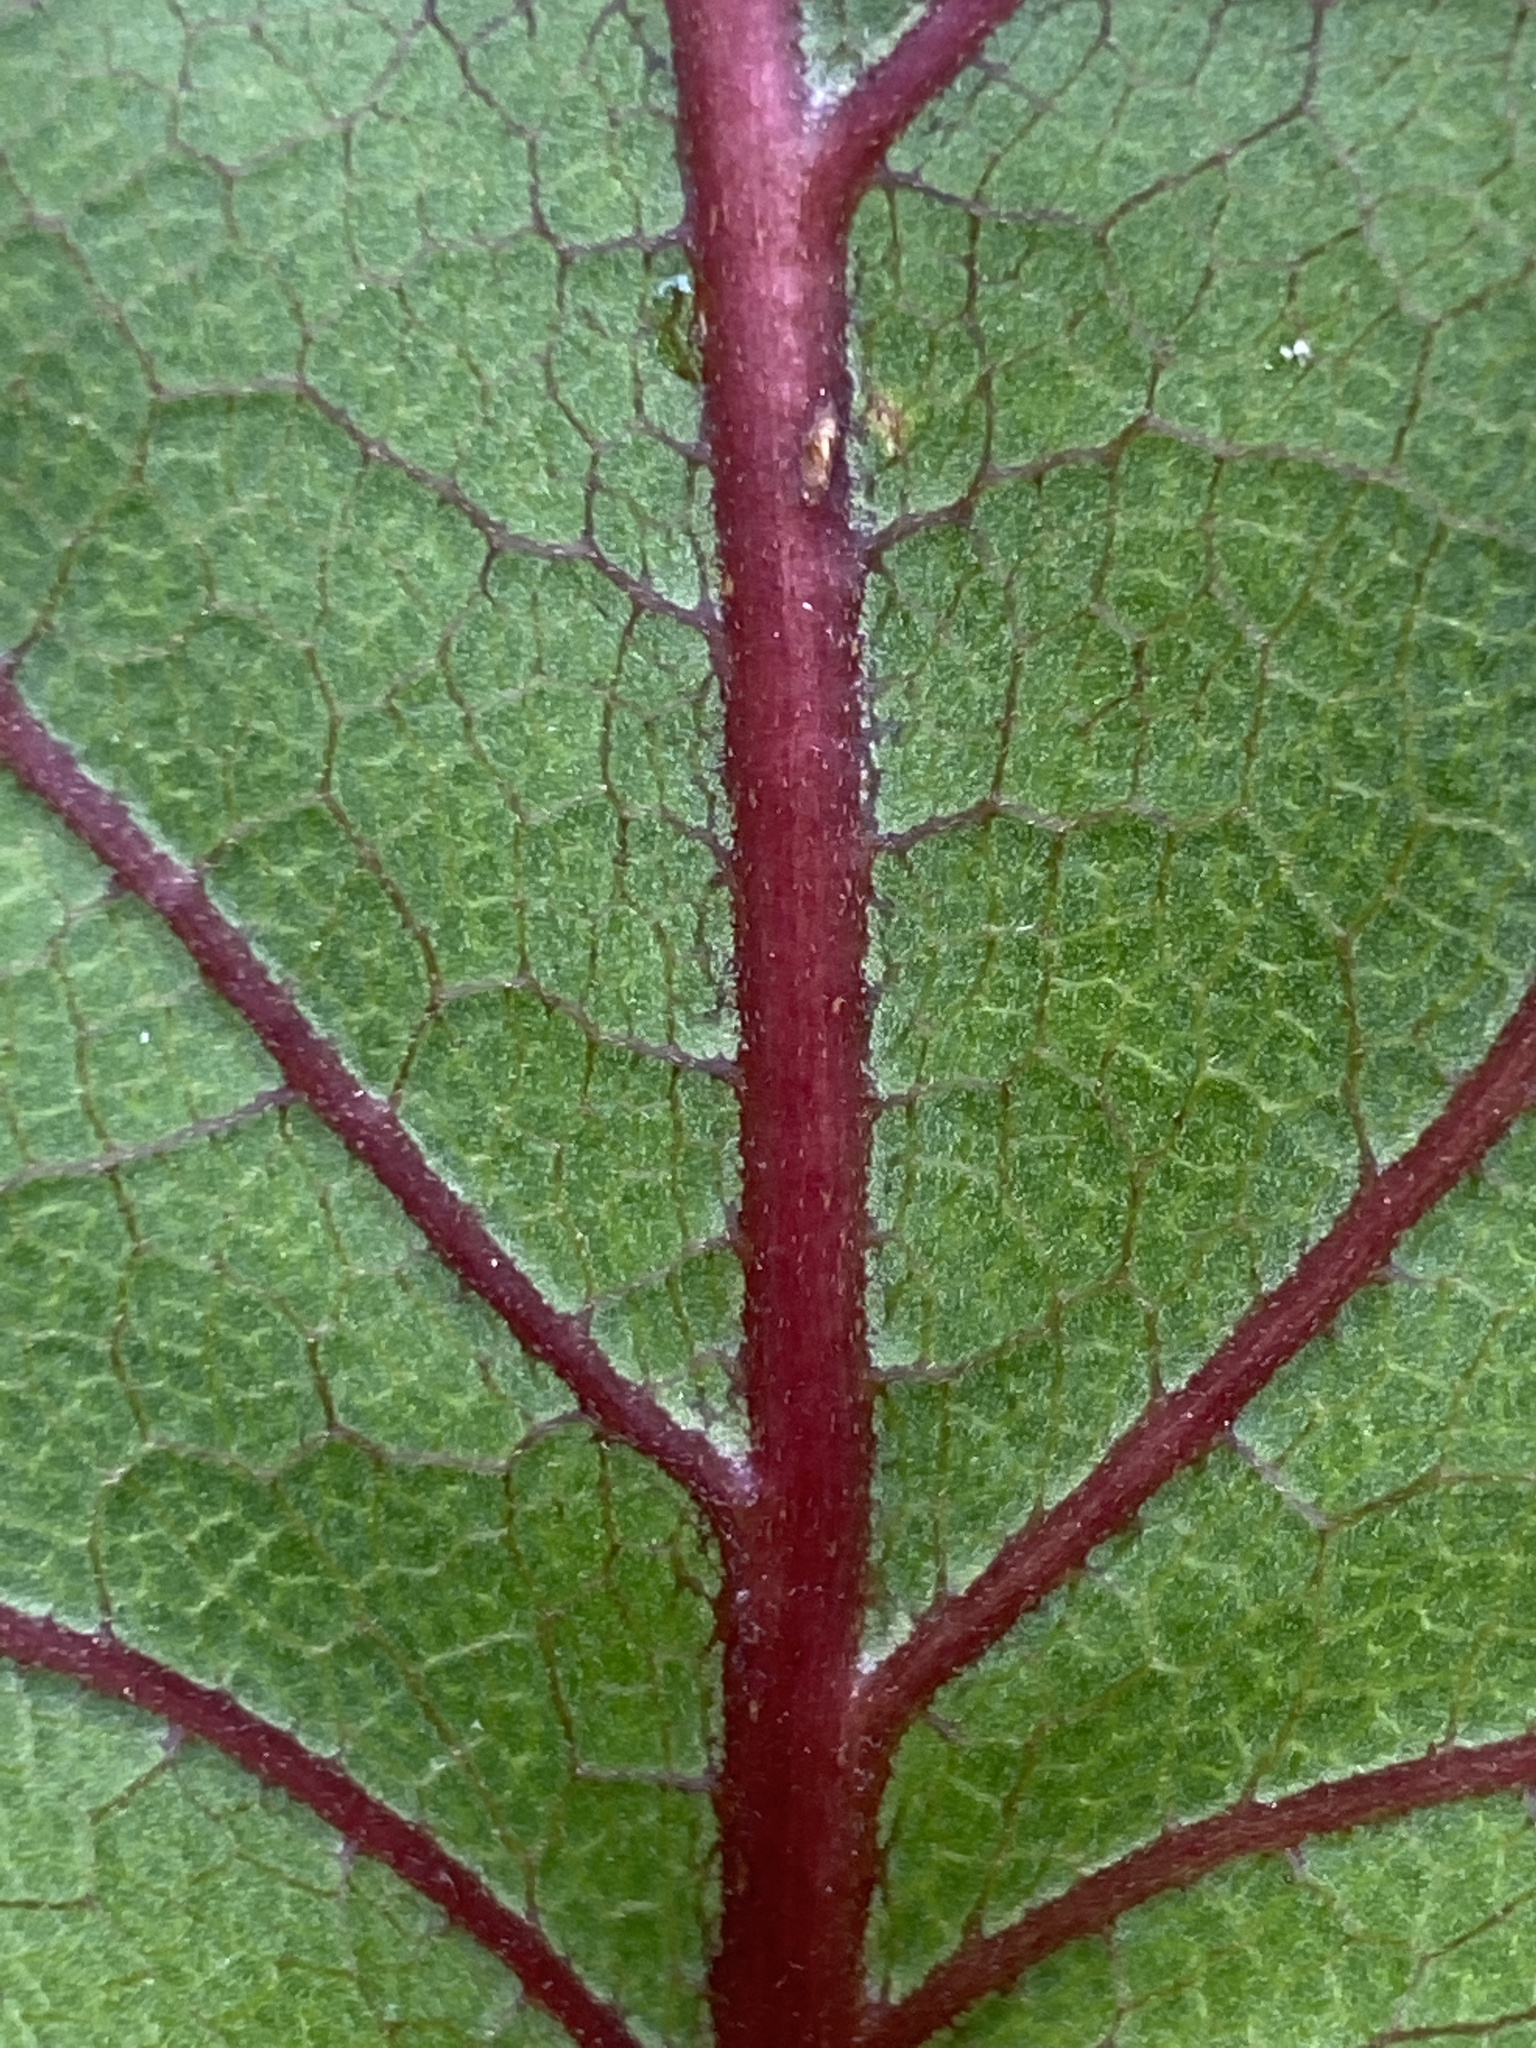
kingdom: Plantae
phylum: Tracheophyta
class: Magnoliopsida
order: Asterales
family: Asteraceae
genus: Silphium
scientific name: Silphium compositum
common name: Lesser basal-leaf rosinweed
